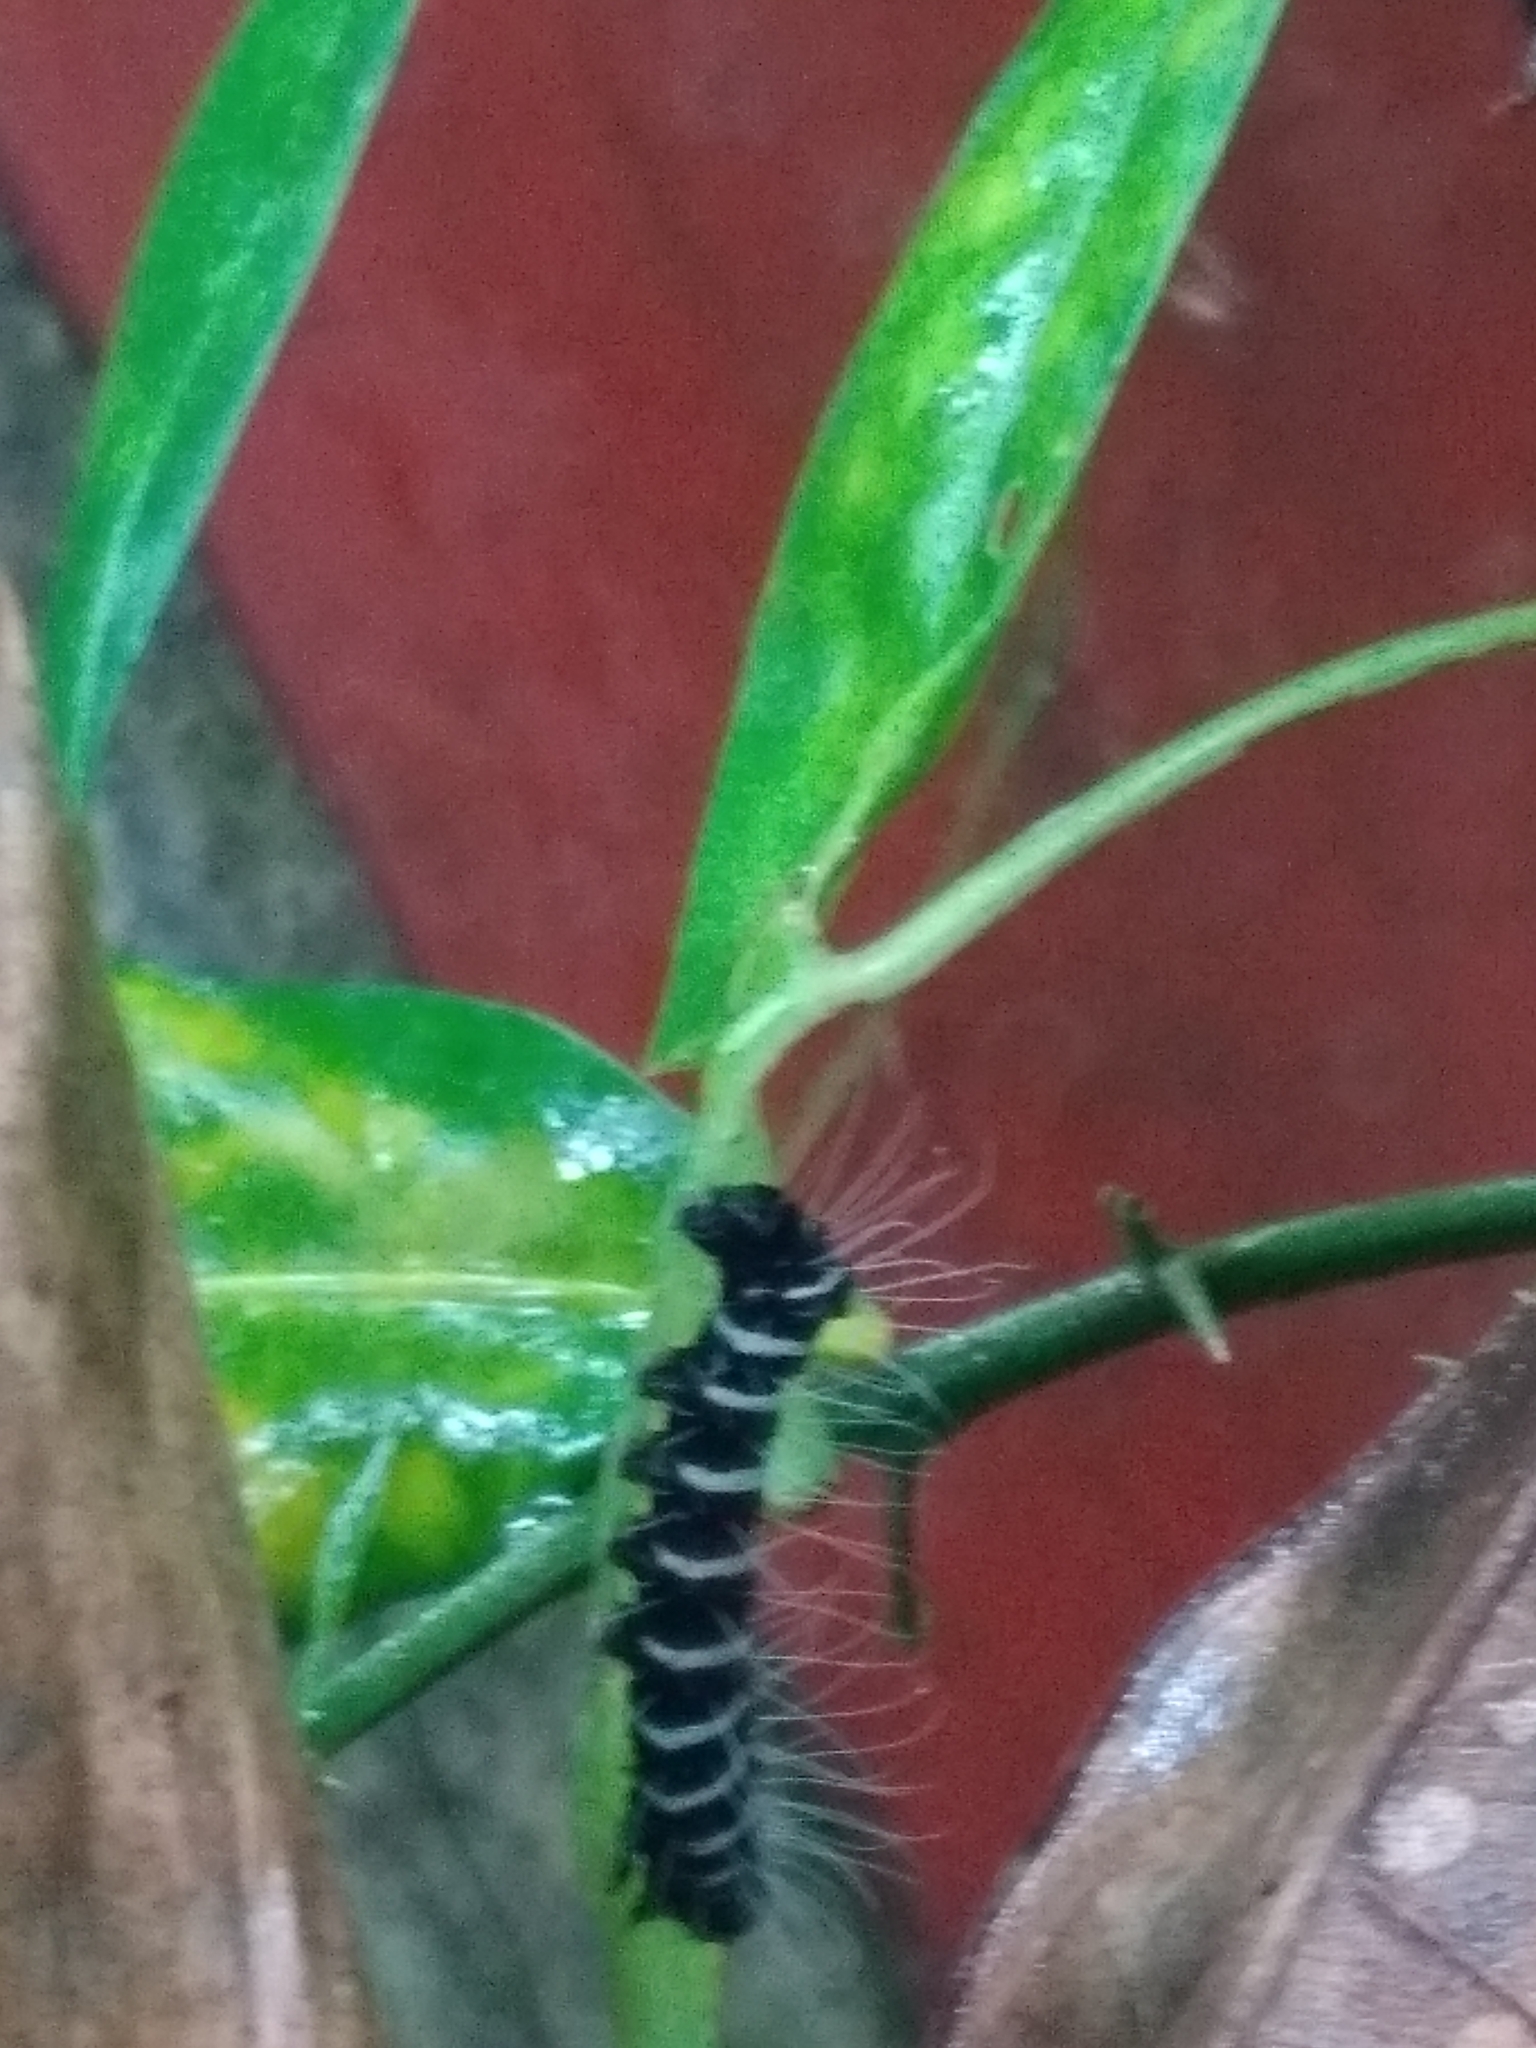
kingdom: Animalia
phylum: Arthropoda
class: Insecta
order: Lepidoptera
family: Noctuidae
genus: Episteme
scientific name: Episteme maculatrix
